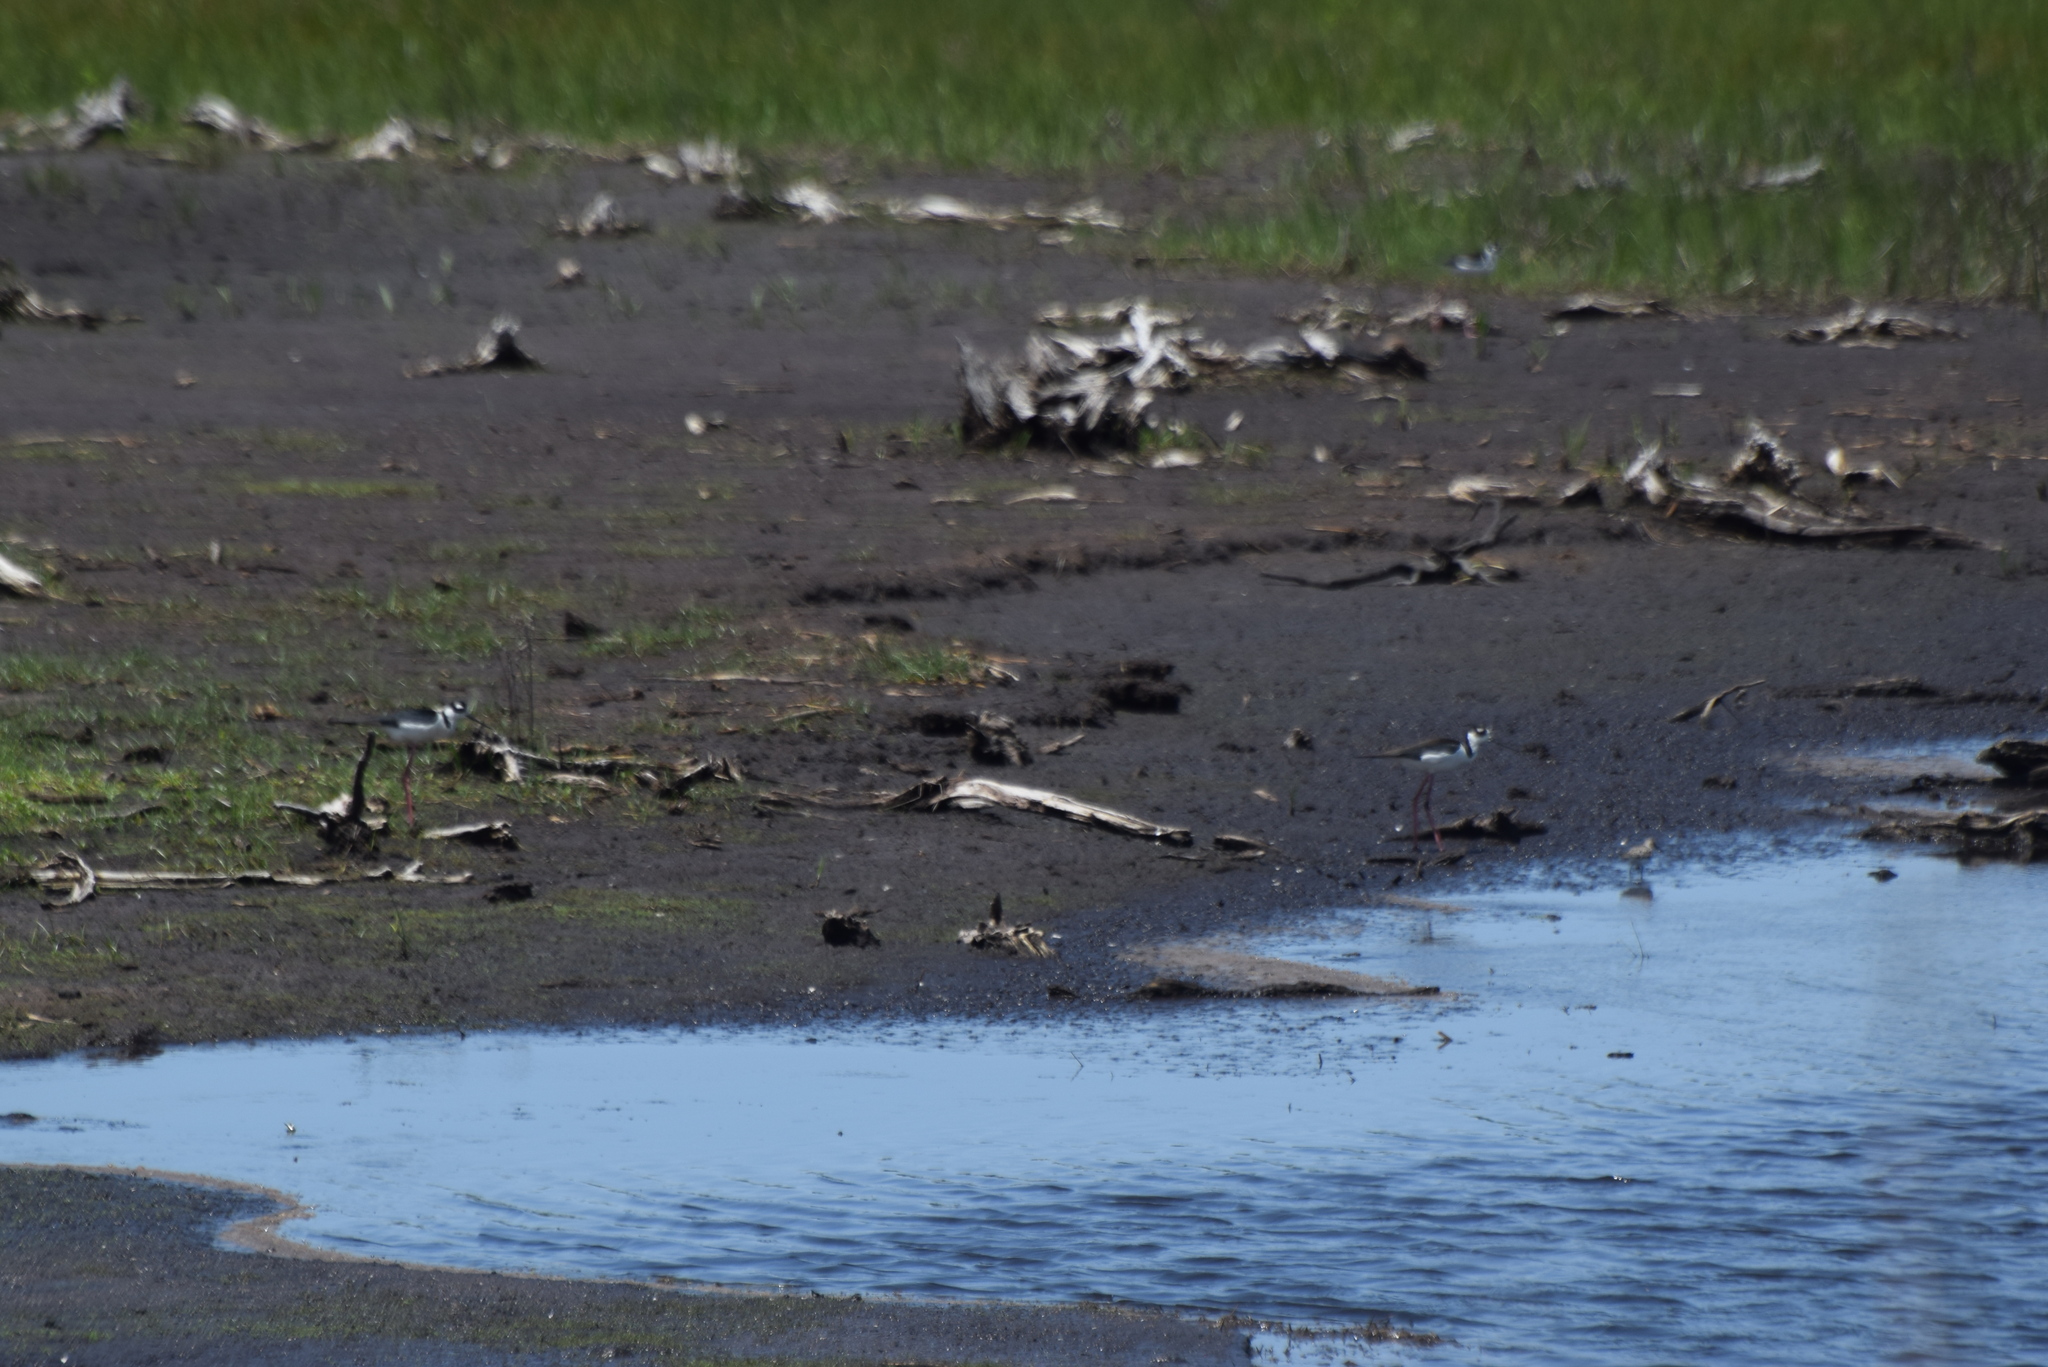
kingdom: Animalia
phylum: Chordata
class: Aves
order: Charadriiformes
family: Recurvirostridae
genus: Himantopus
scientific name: Himantopus mexicanus
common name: Black-necked stilt
